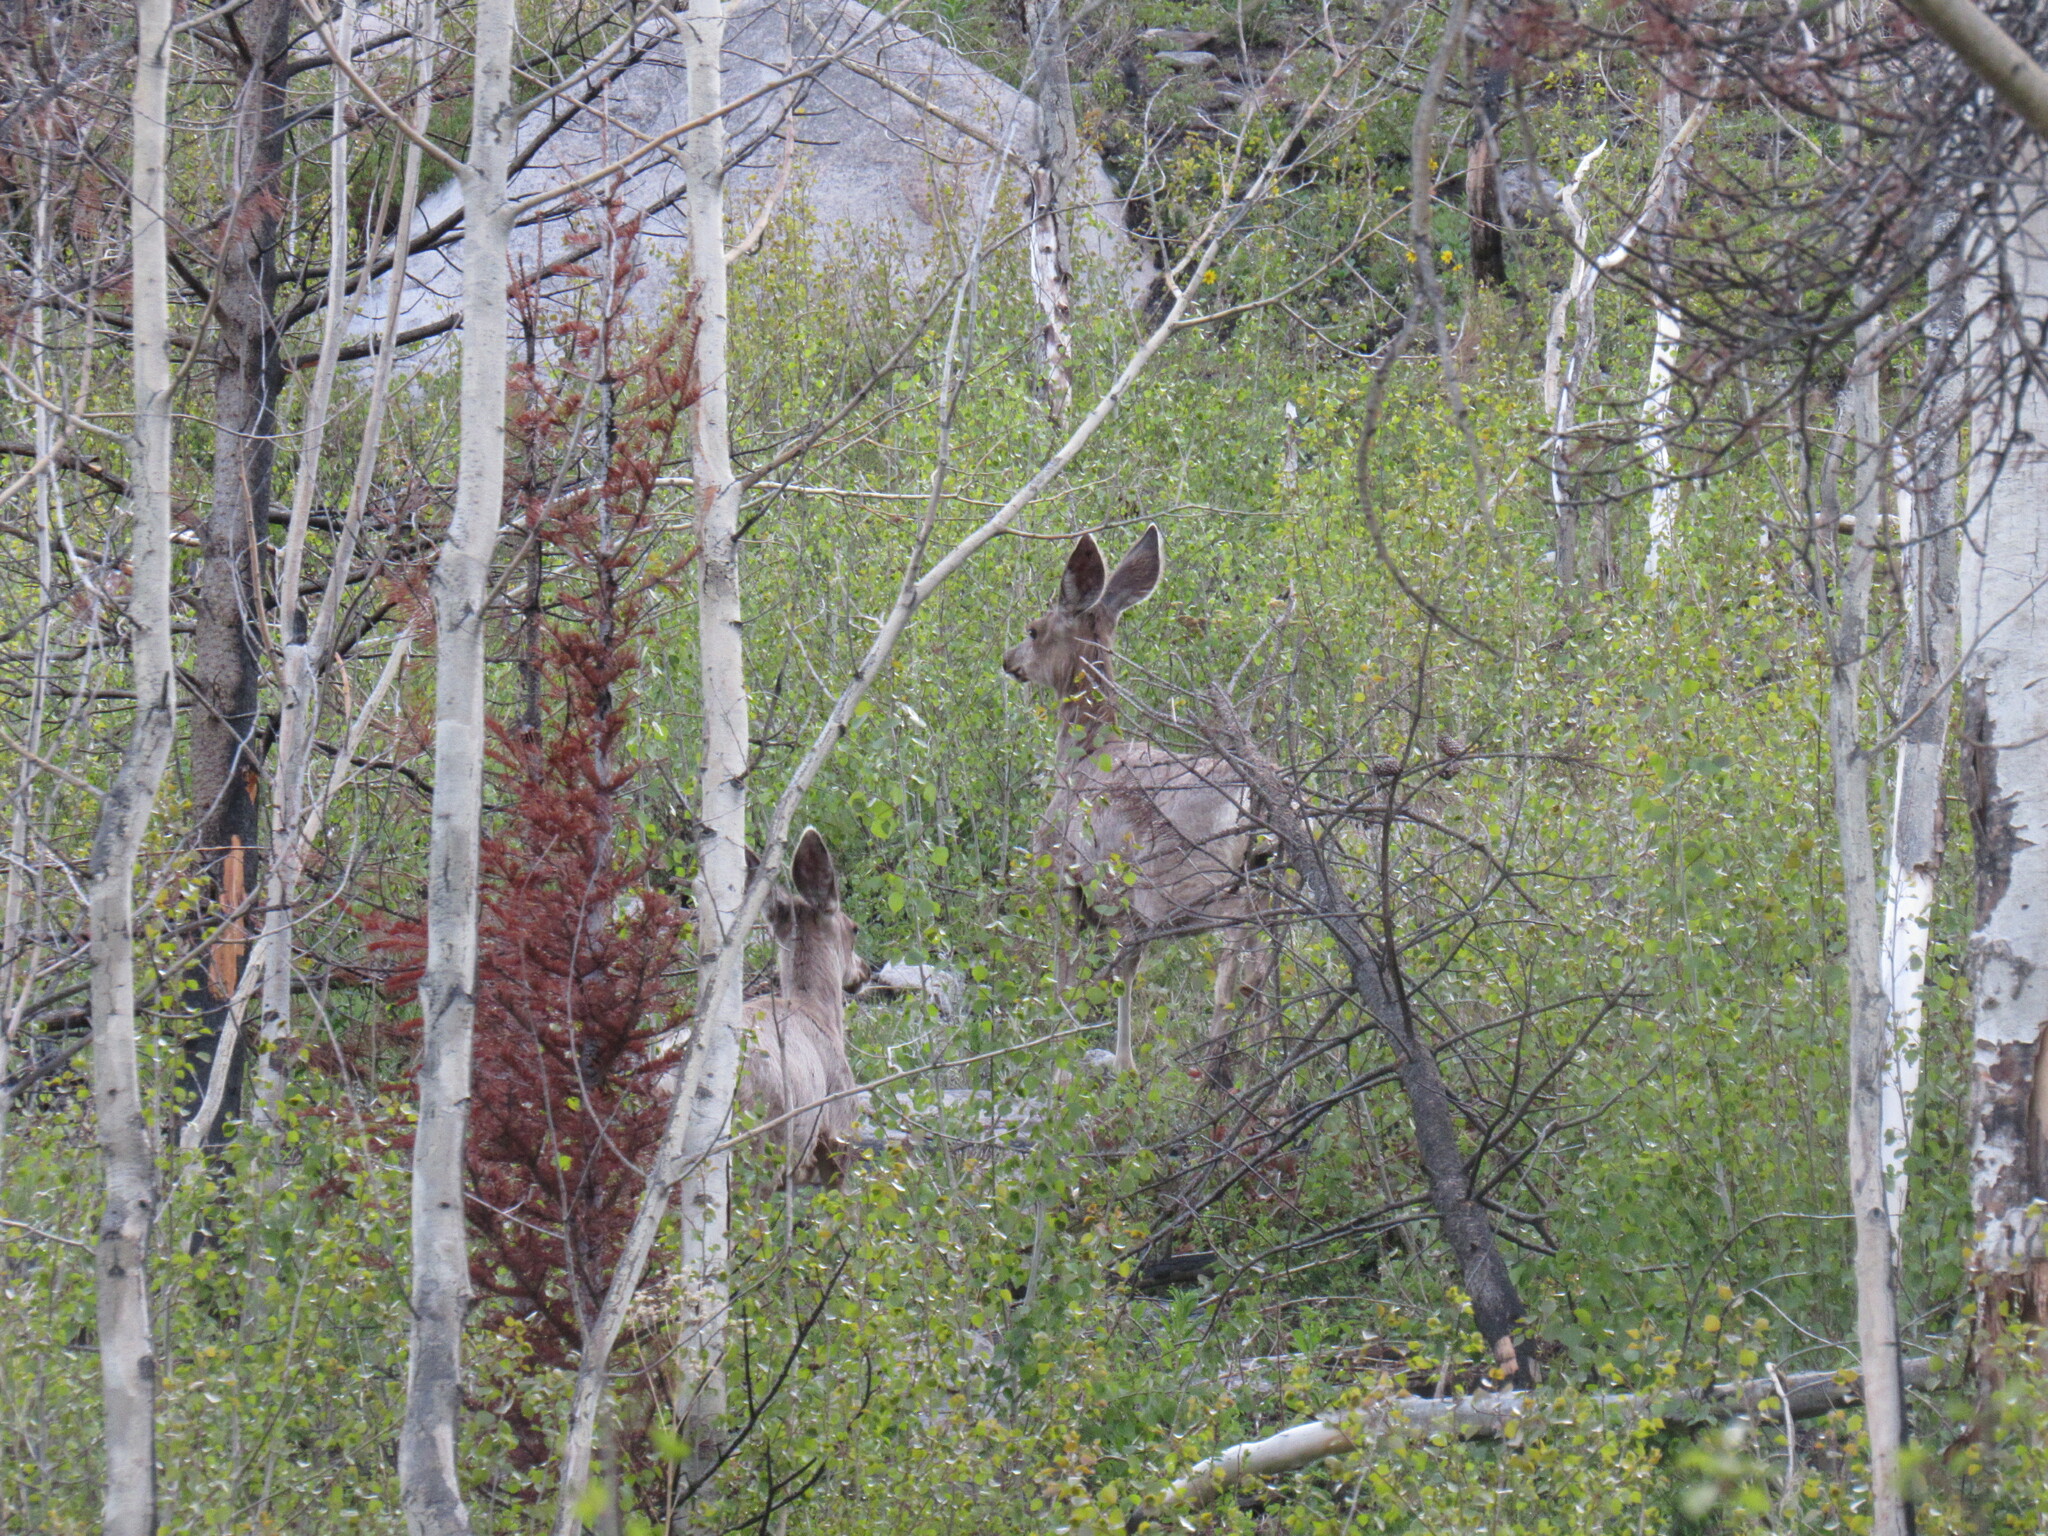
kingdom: Animalia
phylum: Chordata
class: Mammalia
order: Artiodactyla
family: Cervidae
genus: Odocoileus
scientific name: Odocoileus hemionus
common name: Mule deer
